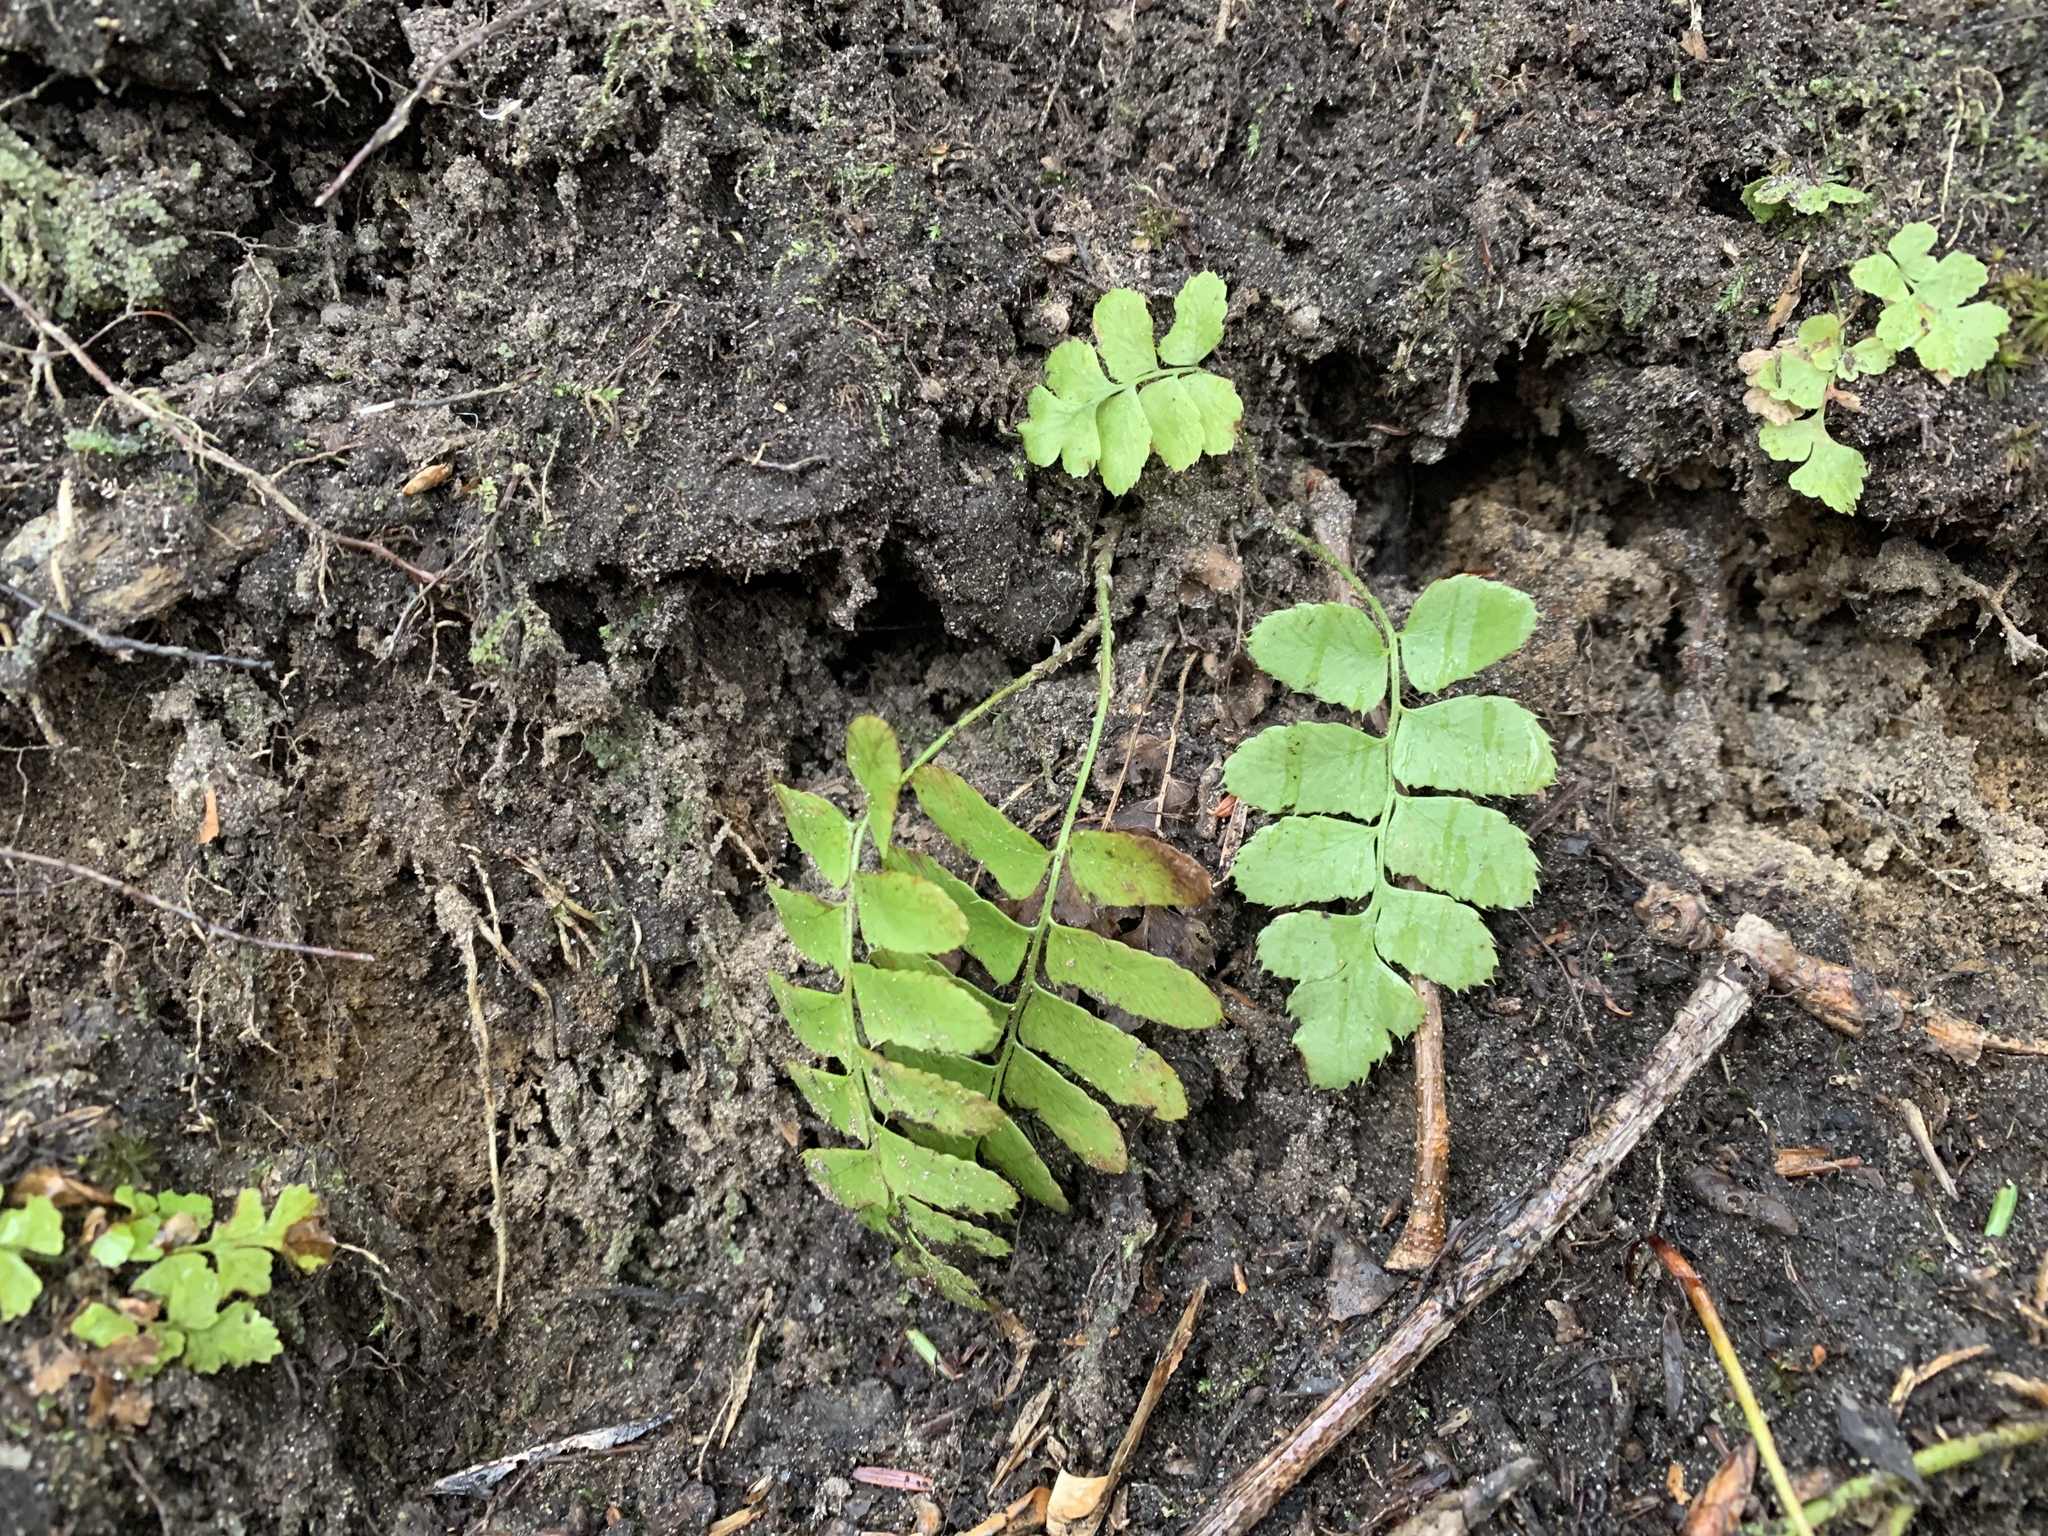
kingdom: Plantae
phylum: Tracheophyta
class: Polypodiopsida
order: Polypodiales
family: Dryopteridaceae
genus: Polystichum
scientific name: Polystichum acrostichoides
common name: Christmas fern
